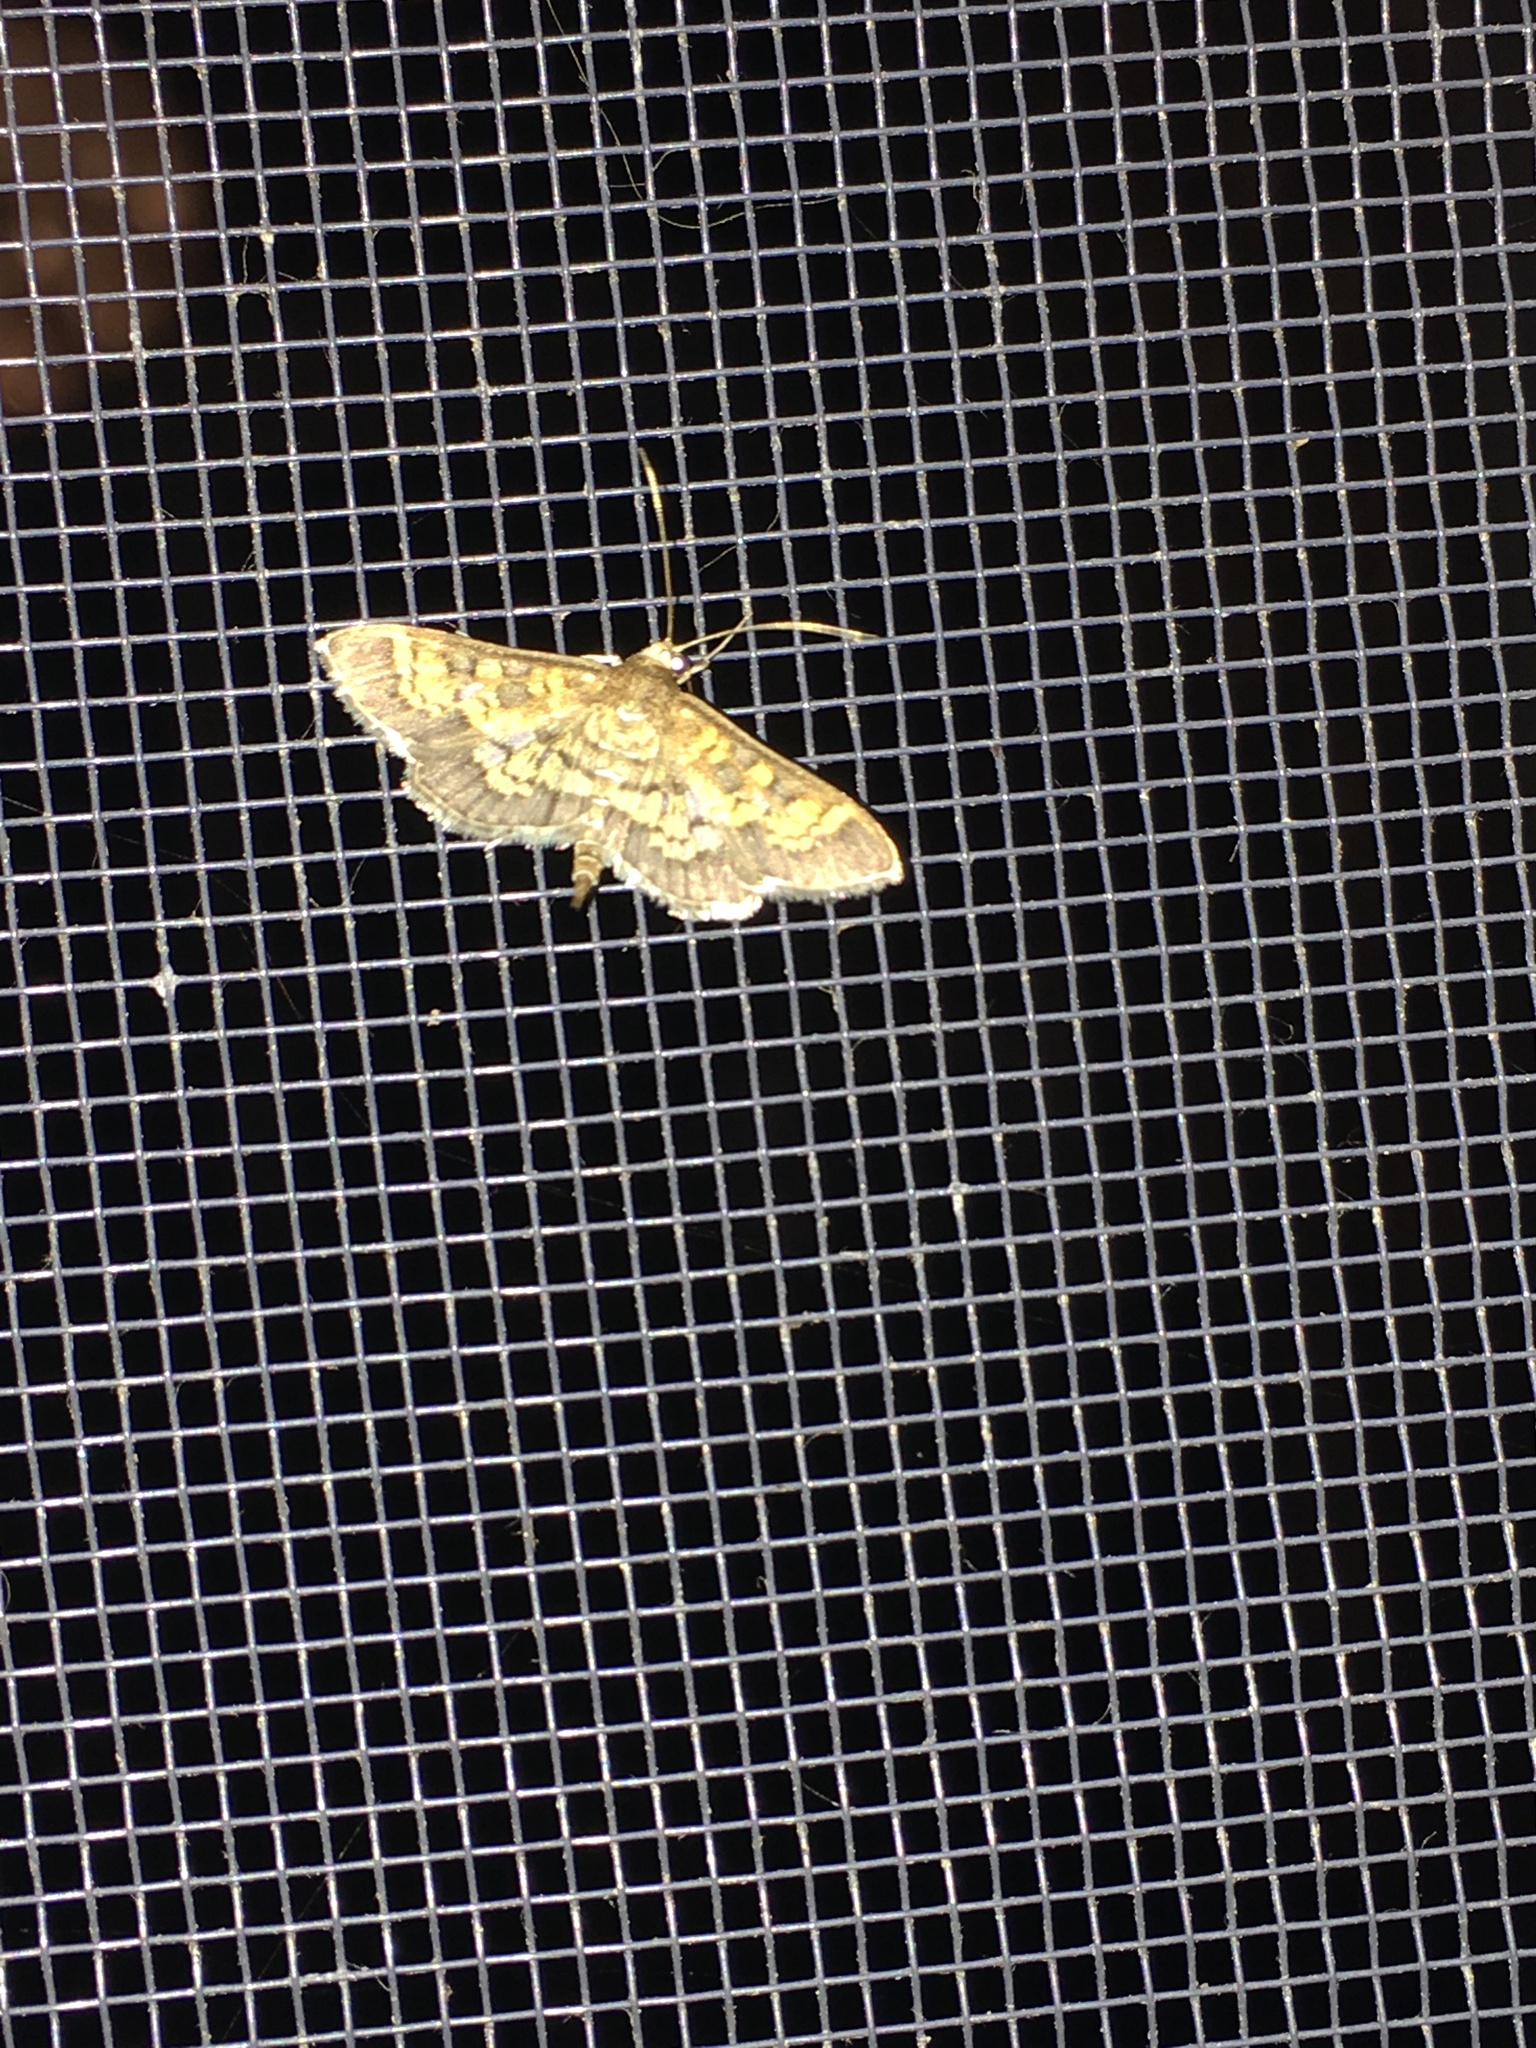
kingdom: Animalia
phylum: Arthropoda
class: Insecta
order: Lepidoptera
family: Crambidae
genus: Epipagis
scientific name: Epipagis adipaloides
